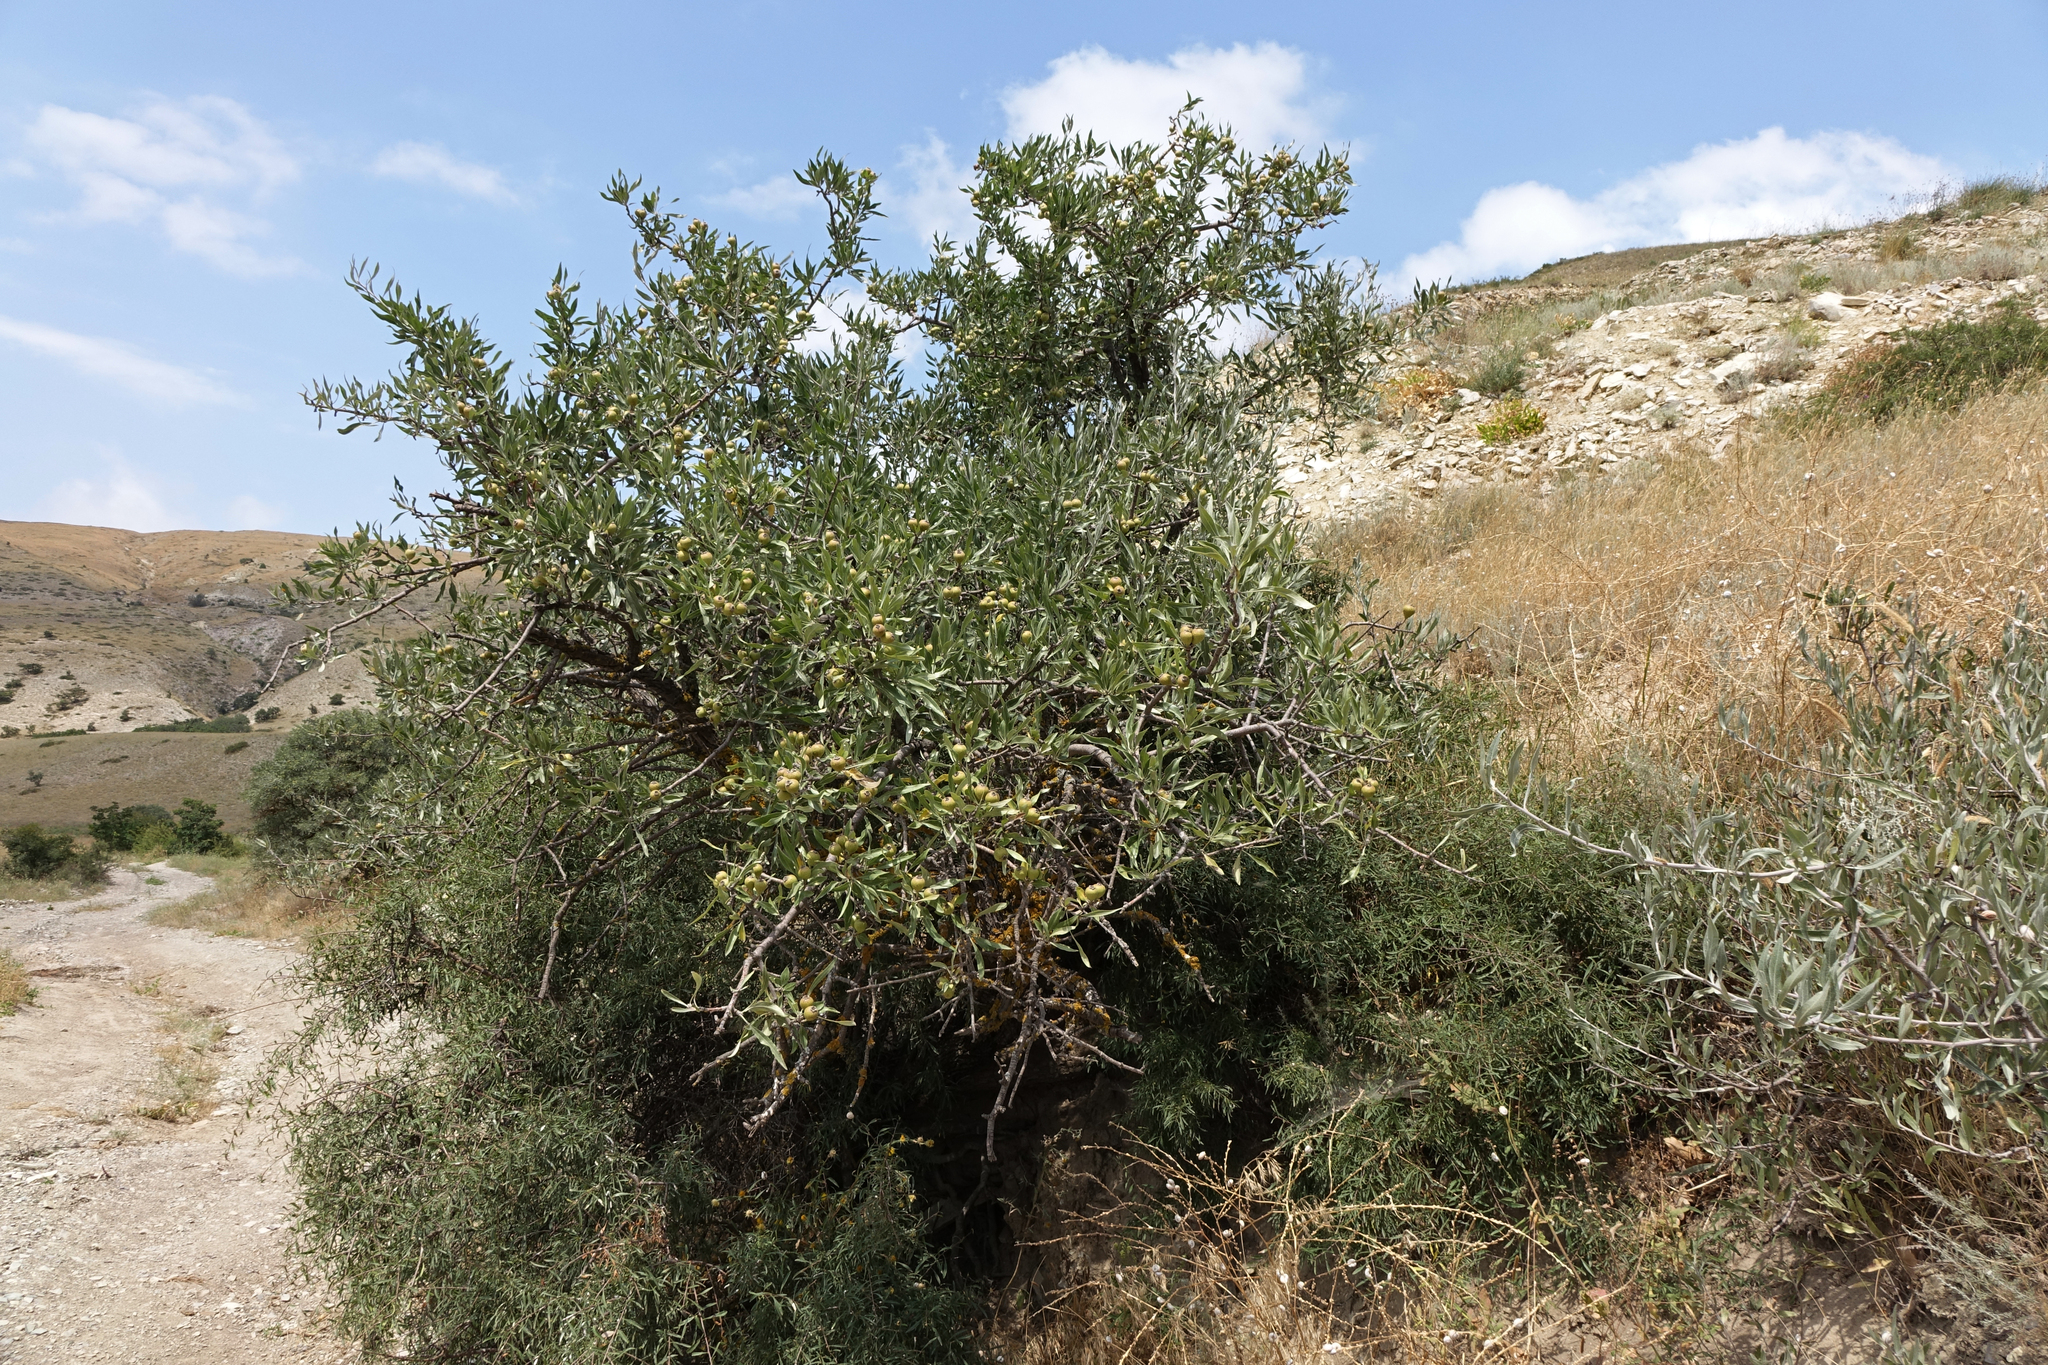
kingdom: Plantae
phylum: Tracheophyta
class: Magnoliopsida
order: Rosales
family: Rosaceae
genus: Pyrus
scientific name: Pyrus salicifolia
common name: Willow-leaved pear
